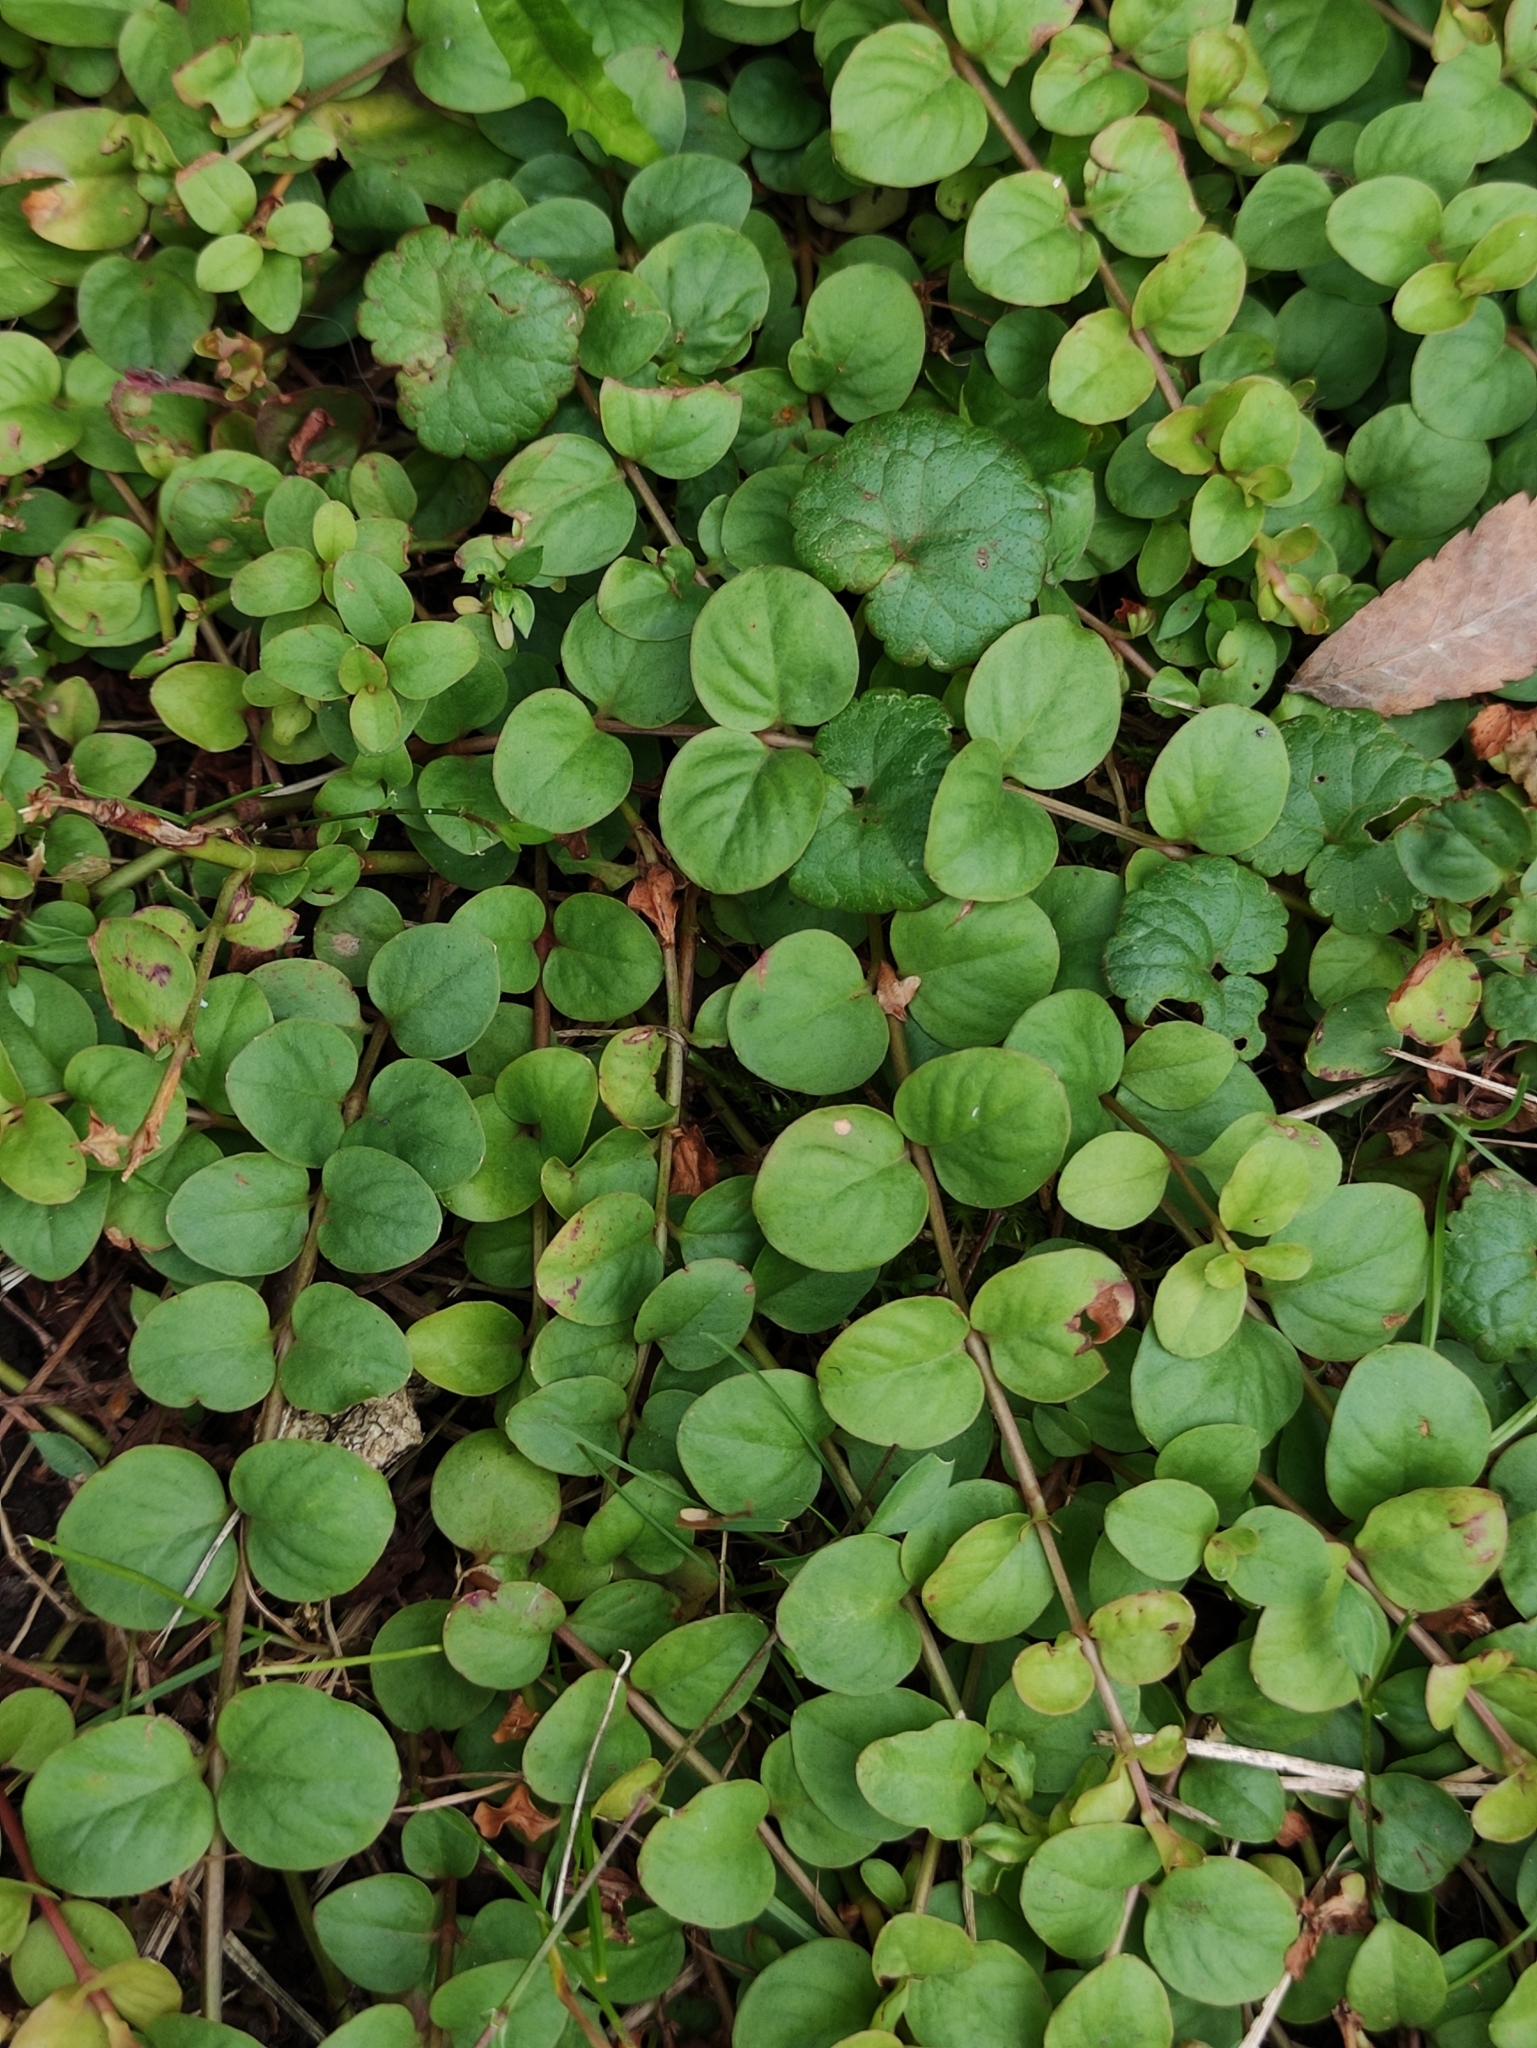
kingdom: Plantae
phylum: Tracheophyta
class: Magnoliopsida
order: Ericales
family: Primulaceae
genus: Lysimachia
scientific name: Lysimachia nummularia
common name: Moneywort
